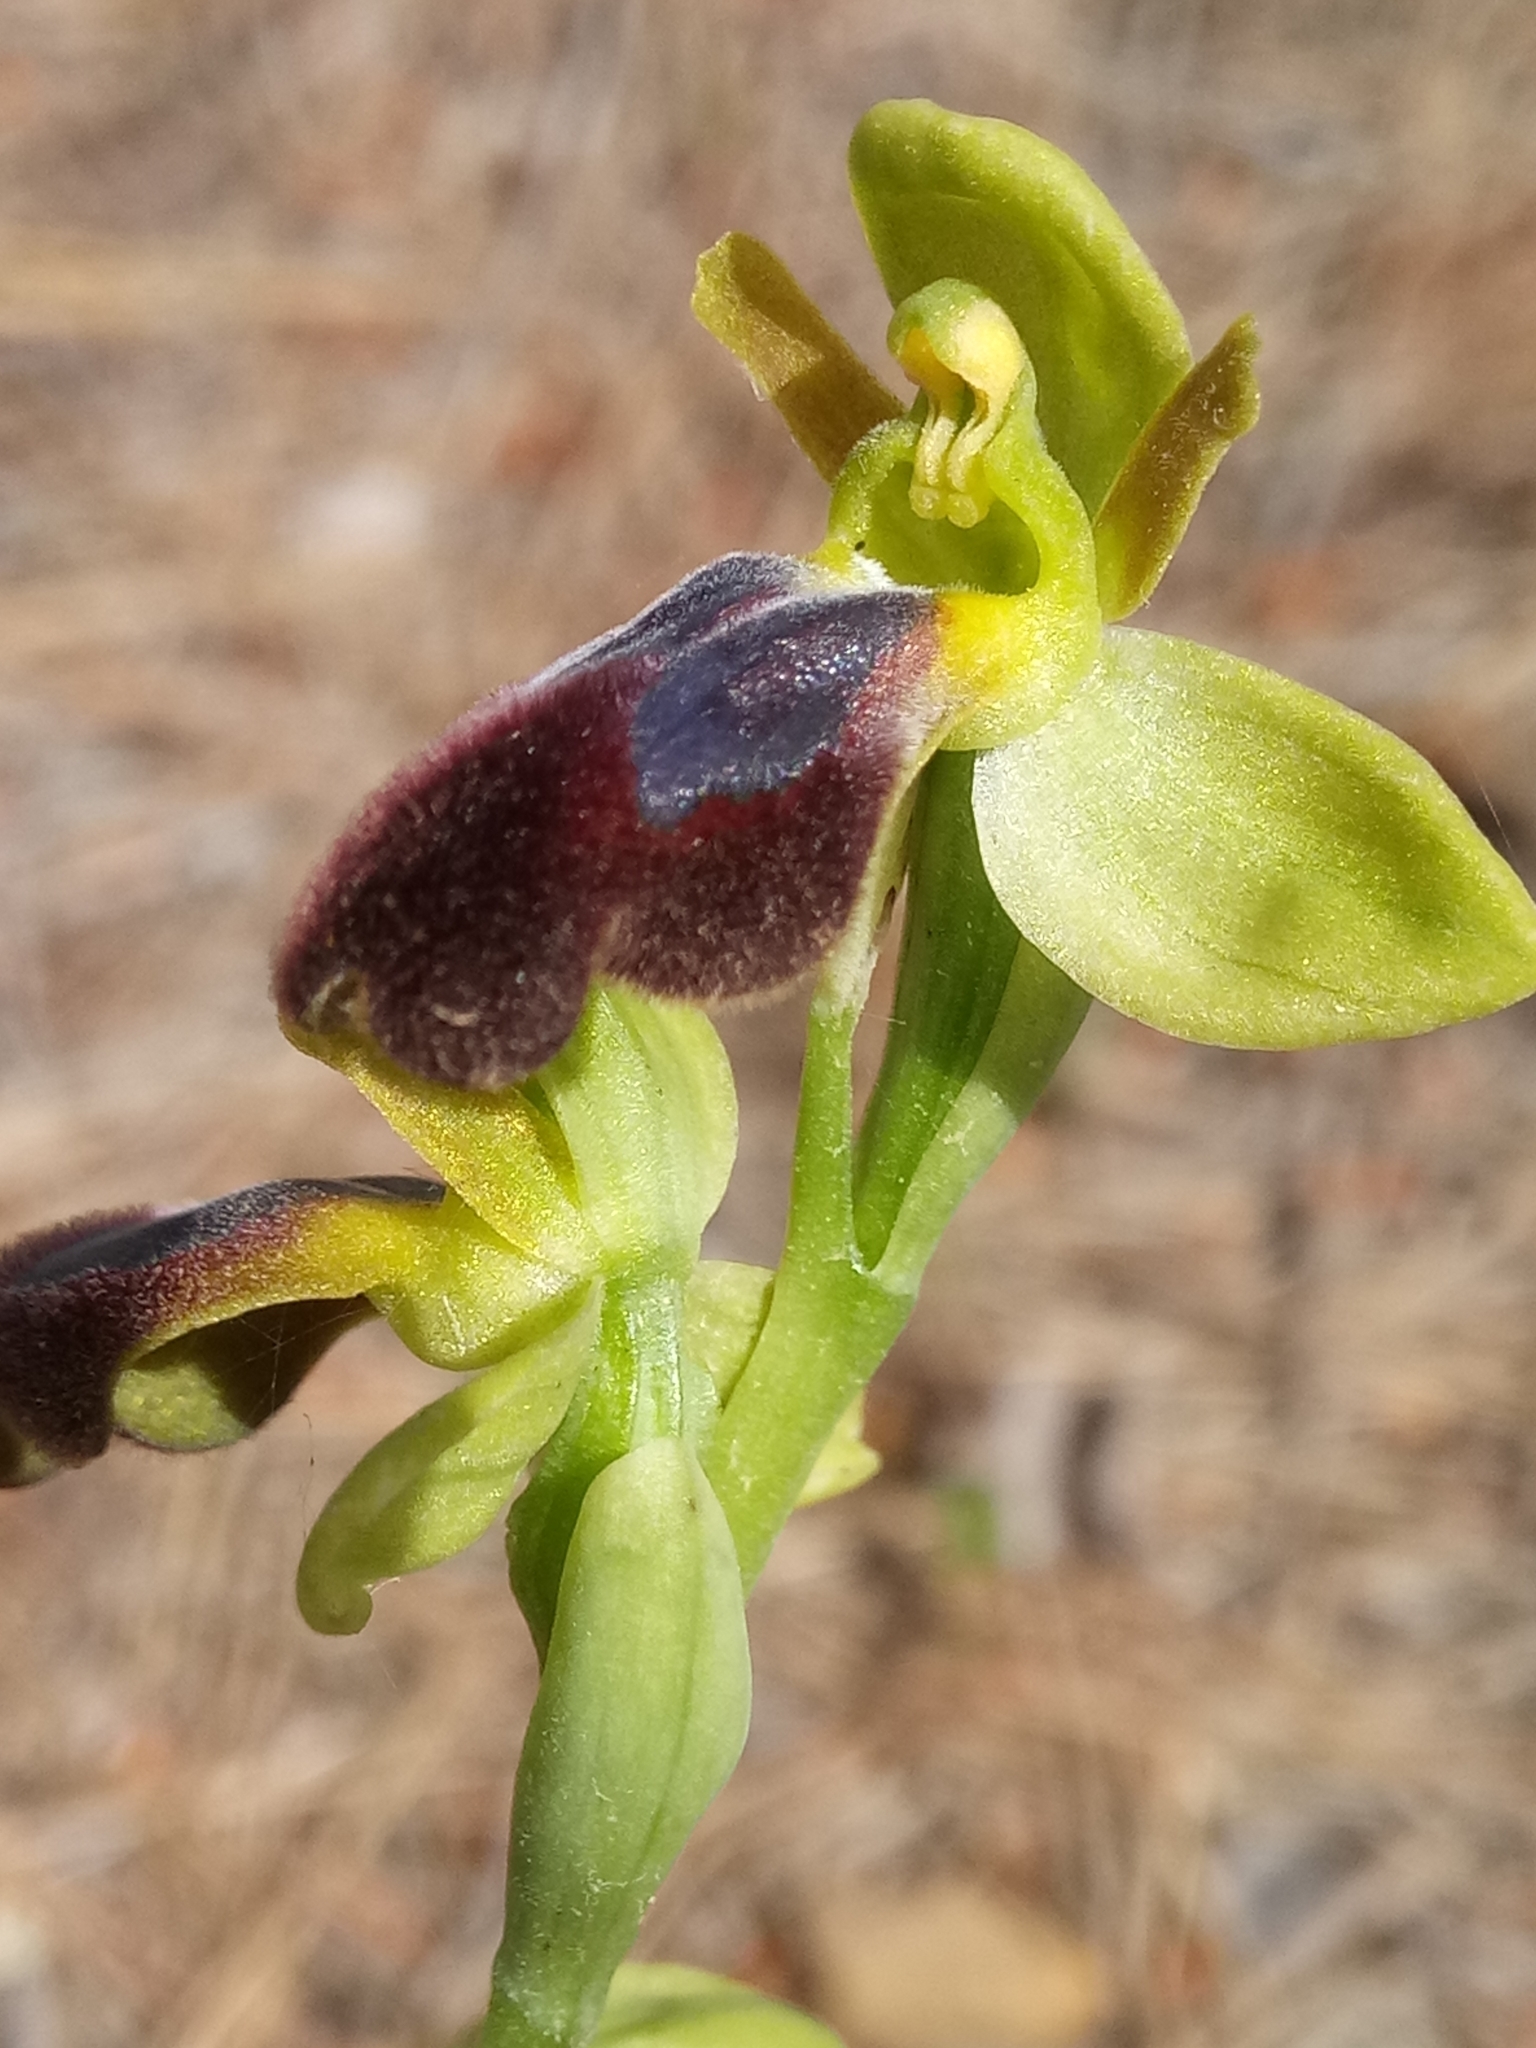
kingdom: Plantae
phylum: Tracheophyta
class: Liliopsida
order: Asparagales
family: Orchidaceae
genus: Ophrys
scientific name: Ophrys fusca
